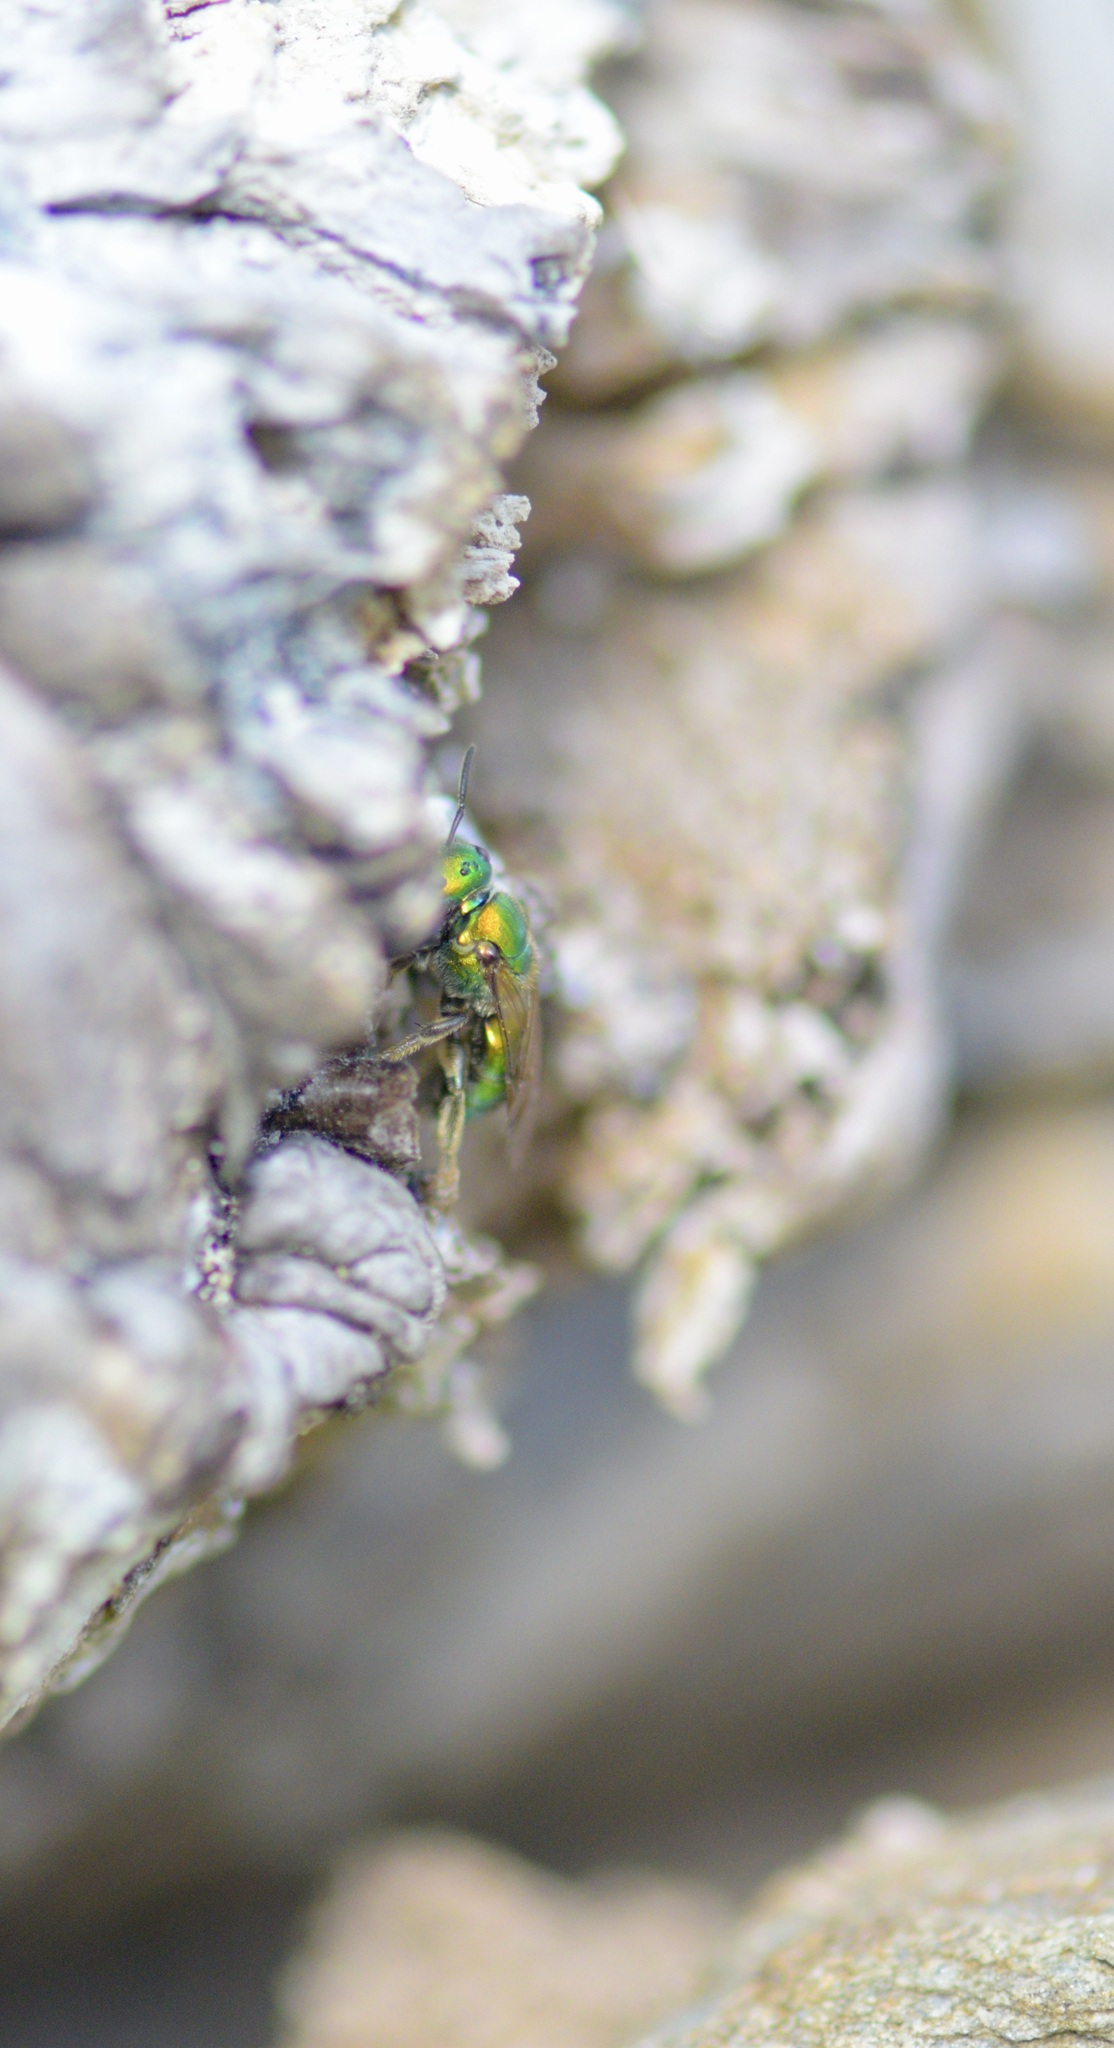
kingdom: Animalia
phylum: Arthropoda
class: Insecta
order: Hymenoptera
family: Halictidae
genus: Augochlora
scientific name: Augochlora pura
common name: Pure green sweat bee
